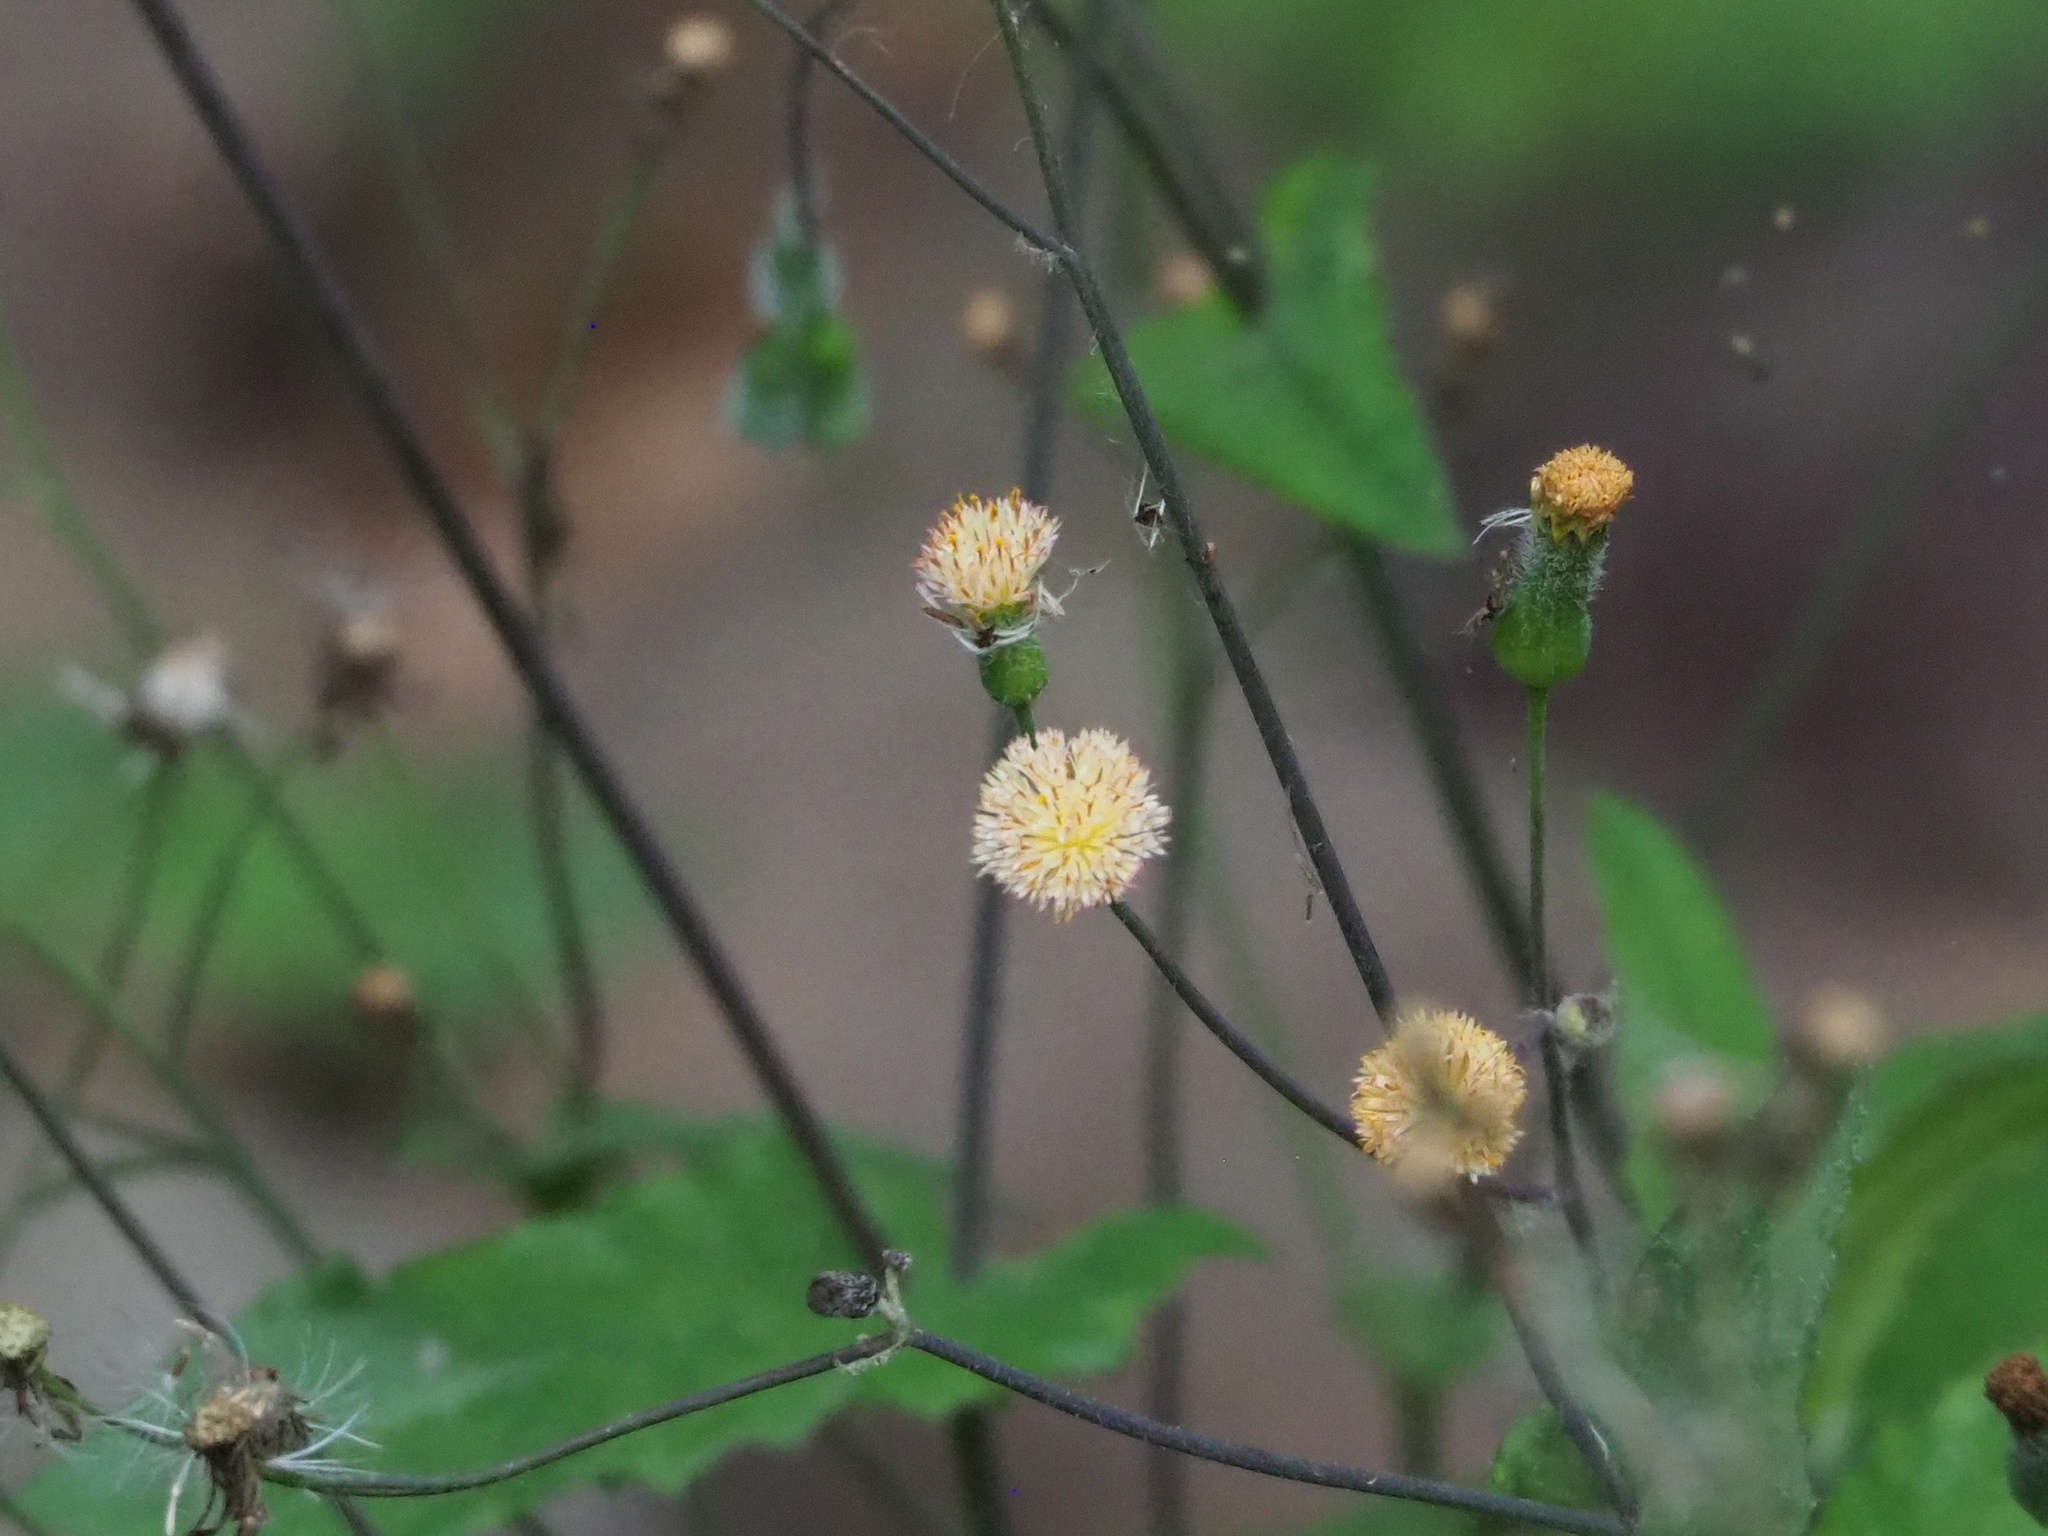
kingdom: Plantae
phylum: Tracheophyta
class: Magnoliopsida
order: Asterales
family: Asteraceae
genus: Emilia
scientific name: Emilia praetermissa
